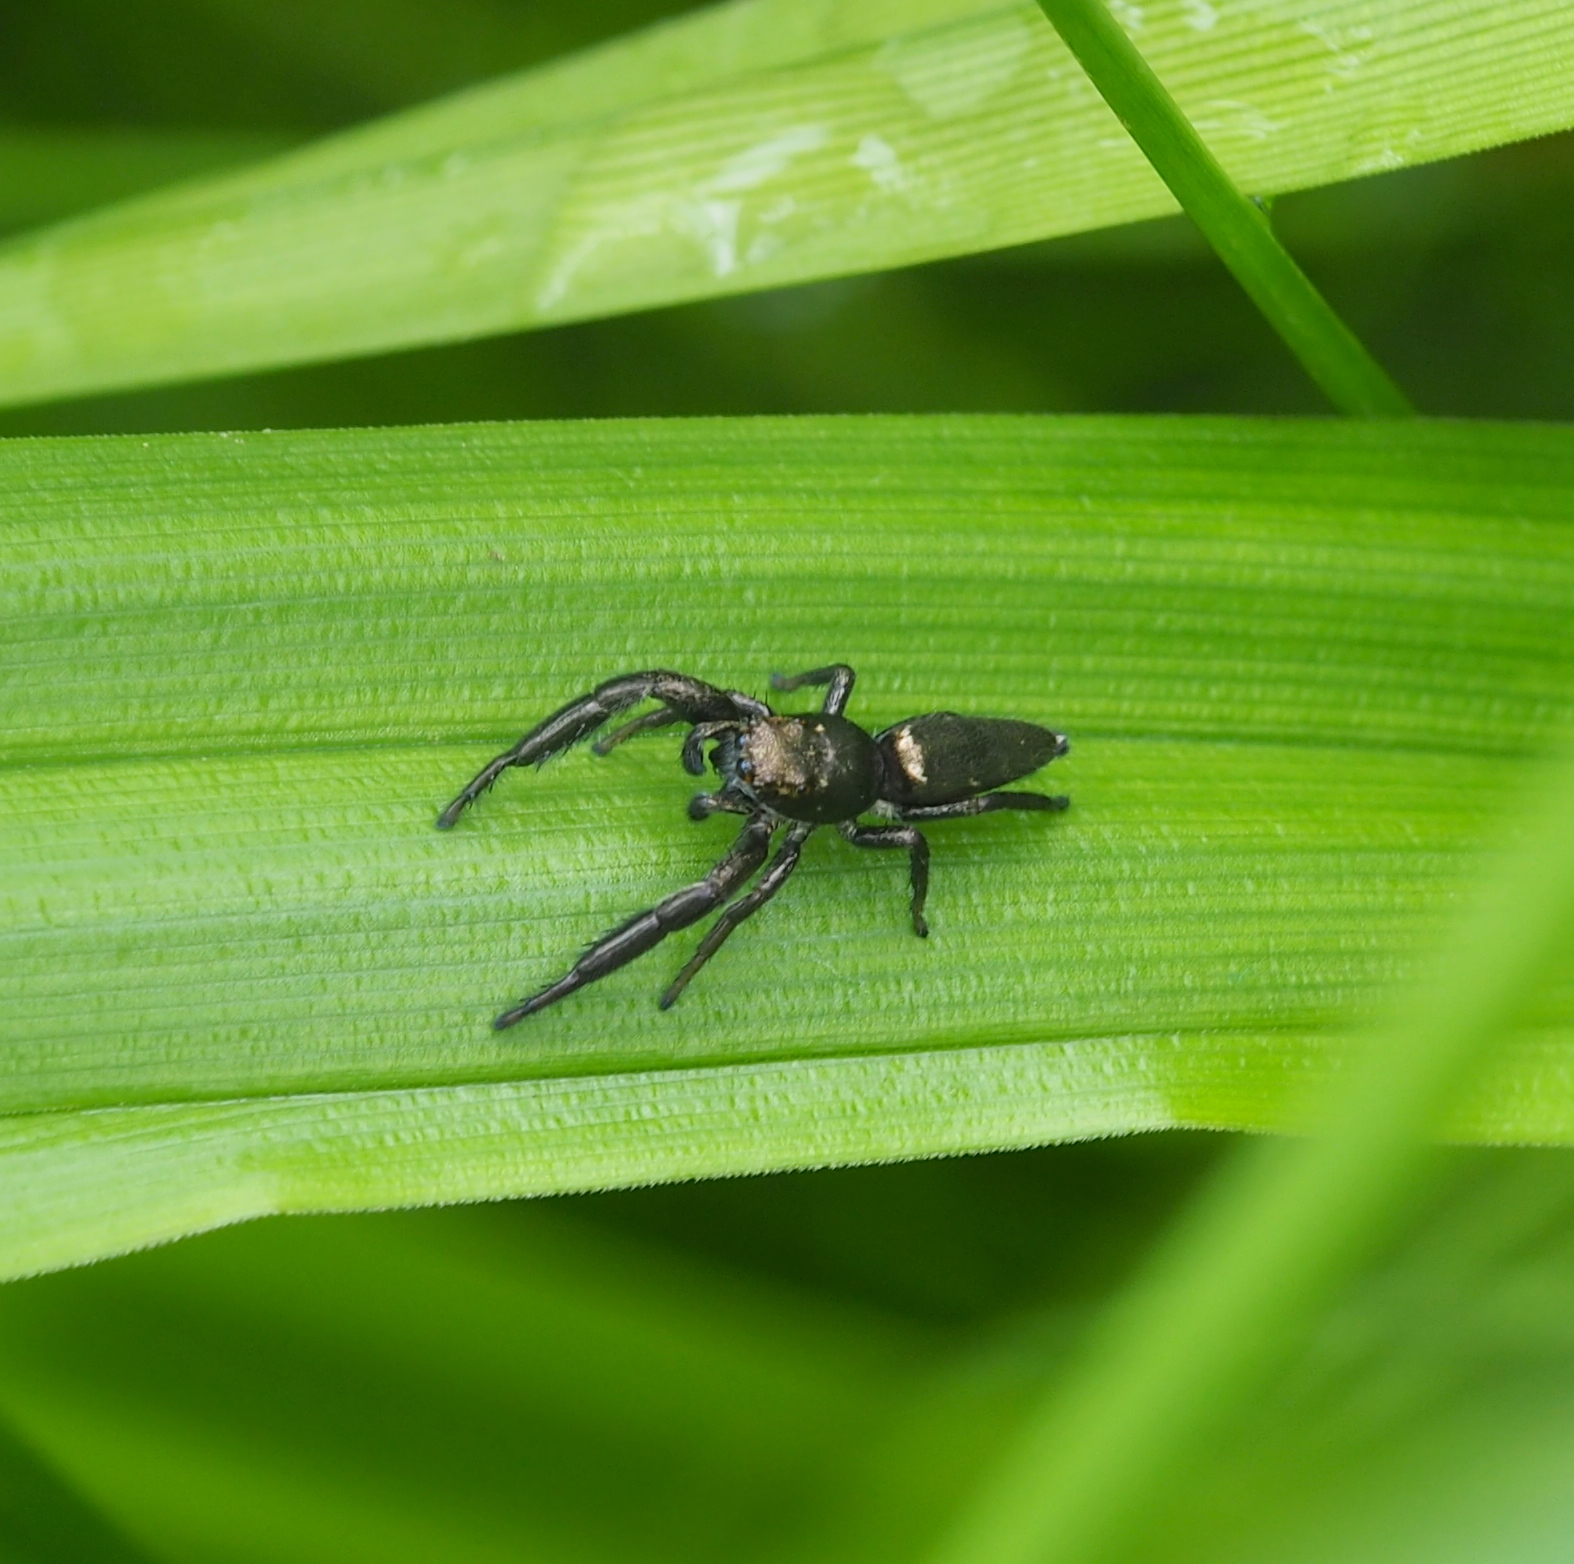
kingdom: Animalia
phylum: Arthropoda
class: Arachnida
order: Araneae
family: Salticidae
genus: Mendoza
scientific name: Mendoza canestrinii
